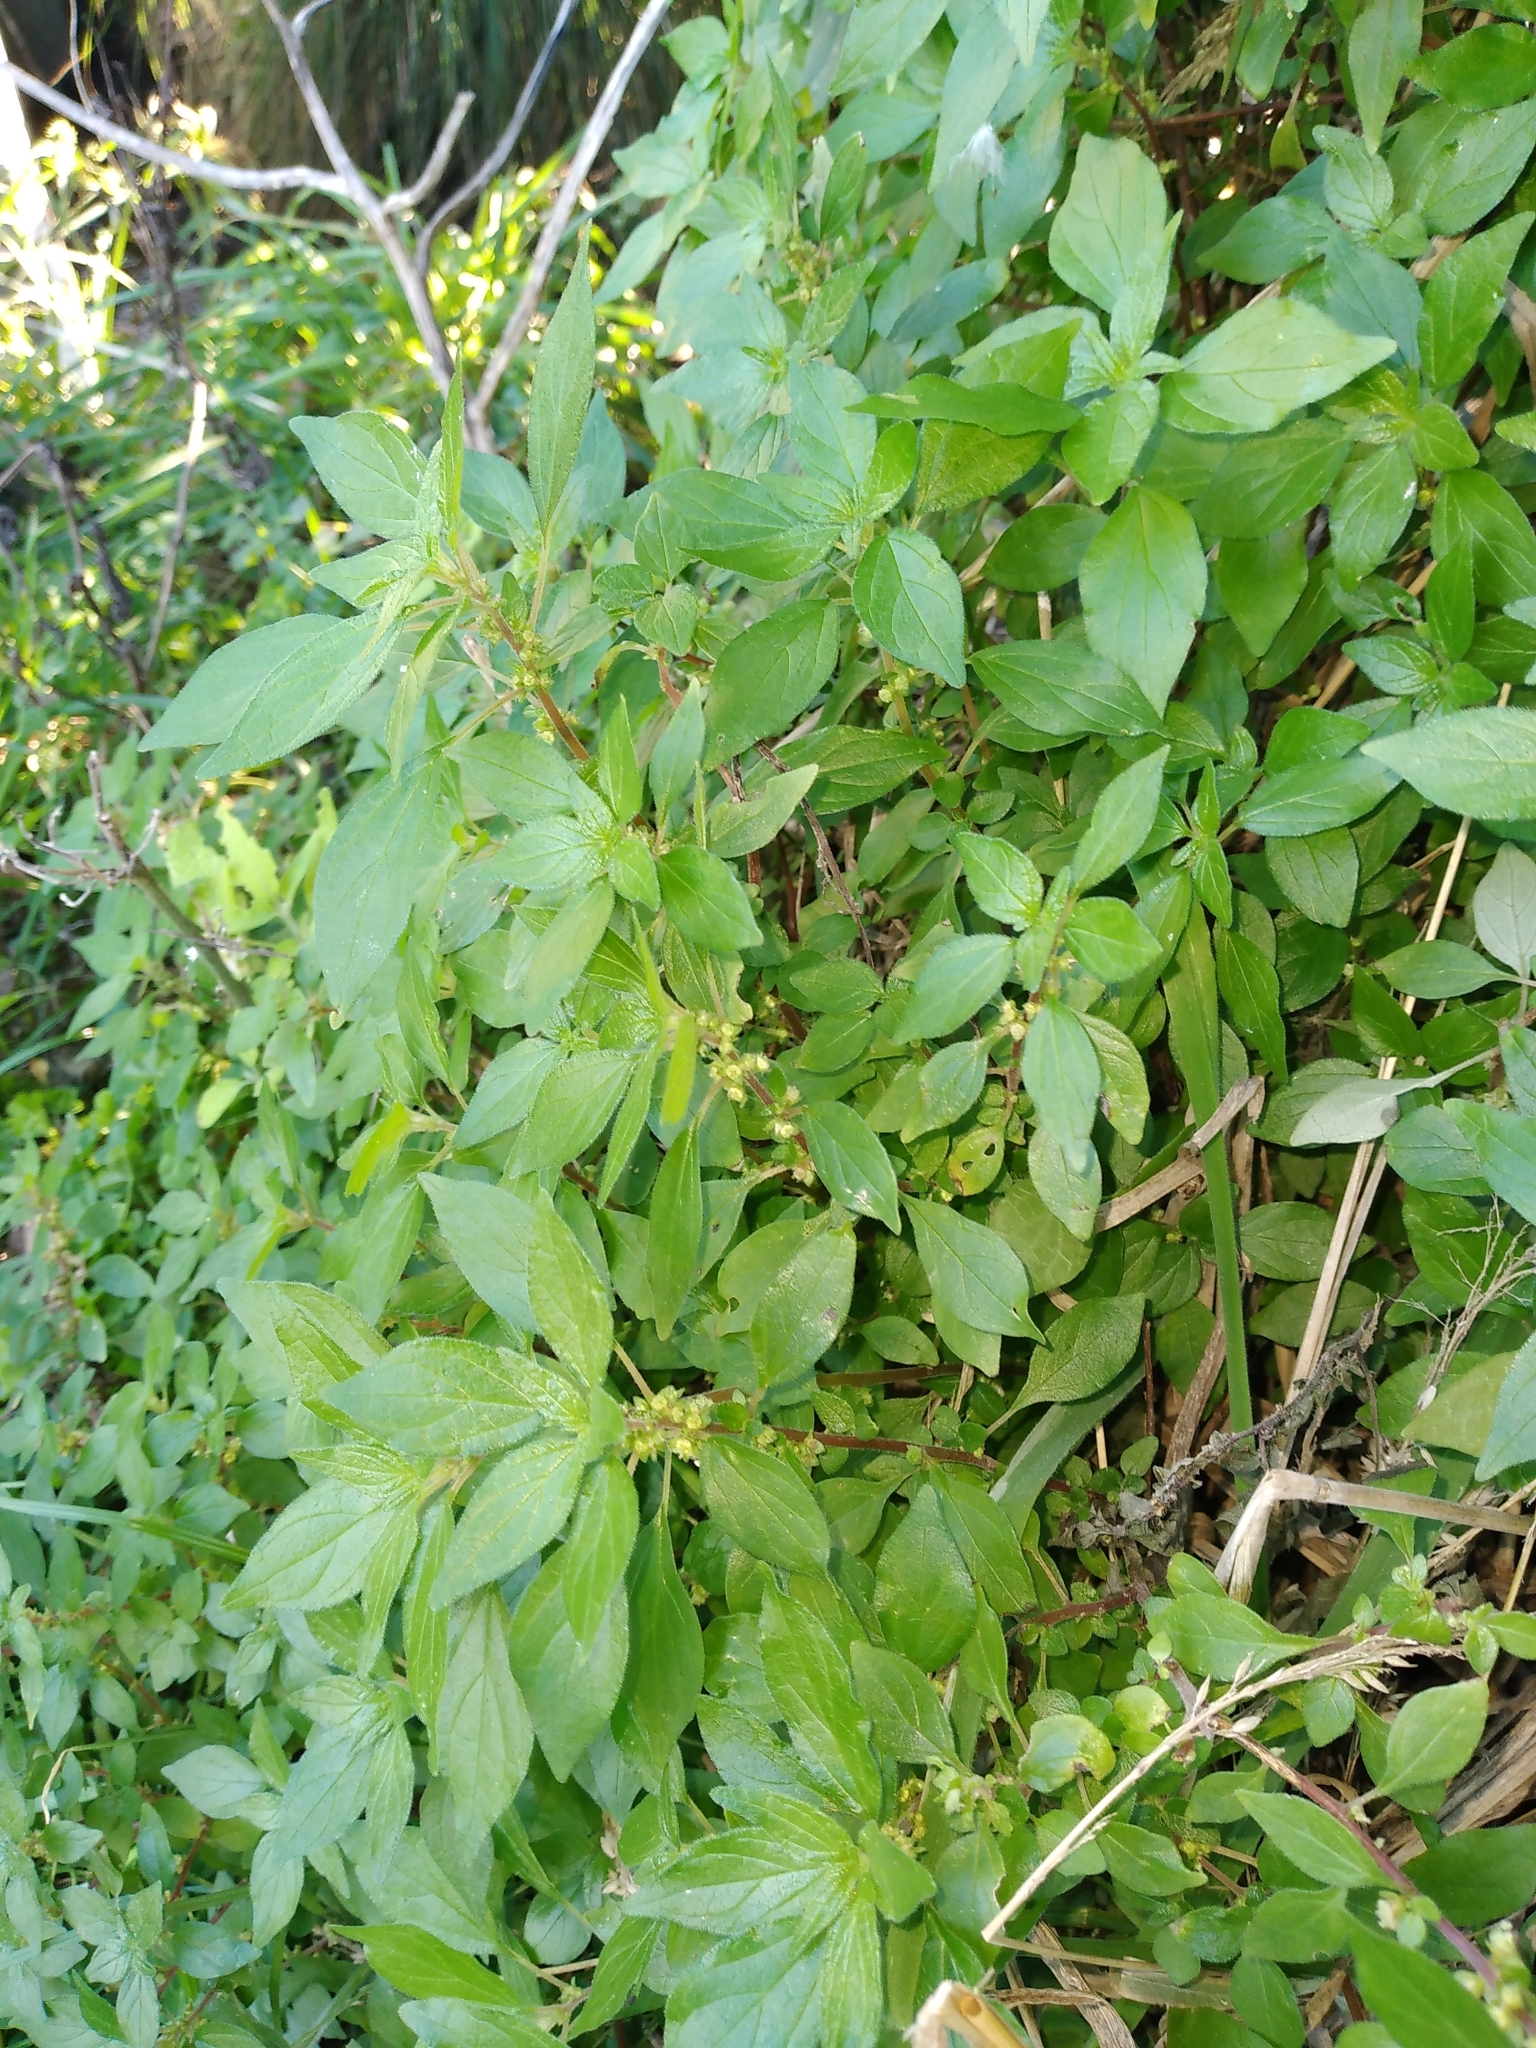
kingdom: Plantae
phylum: Tracheophyta
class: Magnoliopsida
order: Rosales
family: Urticaceae
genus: Parietaria
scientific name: Parietaria judaica
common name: Pellitory-of-the-wall
